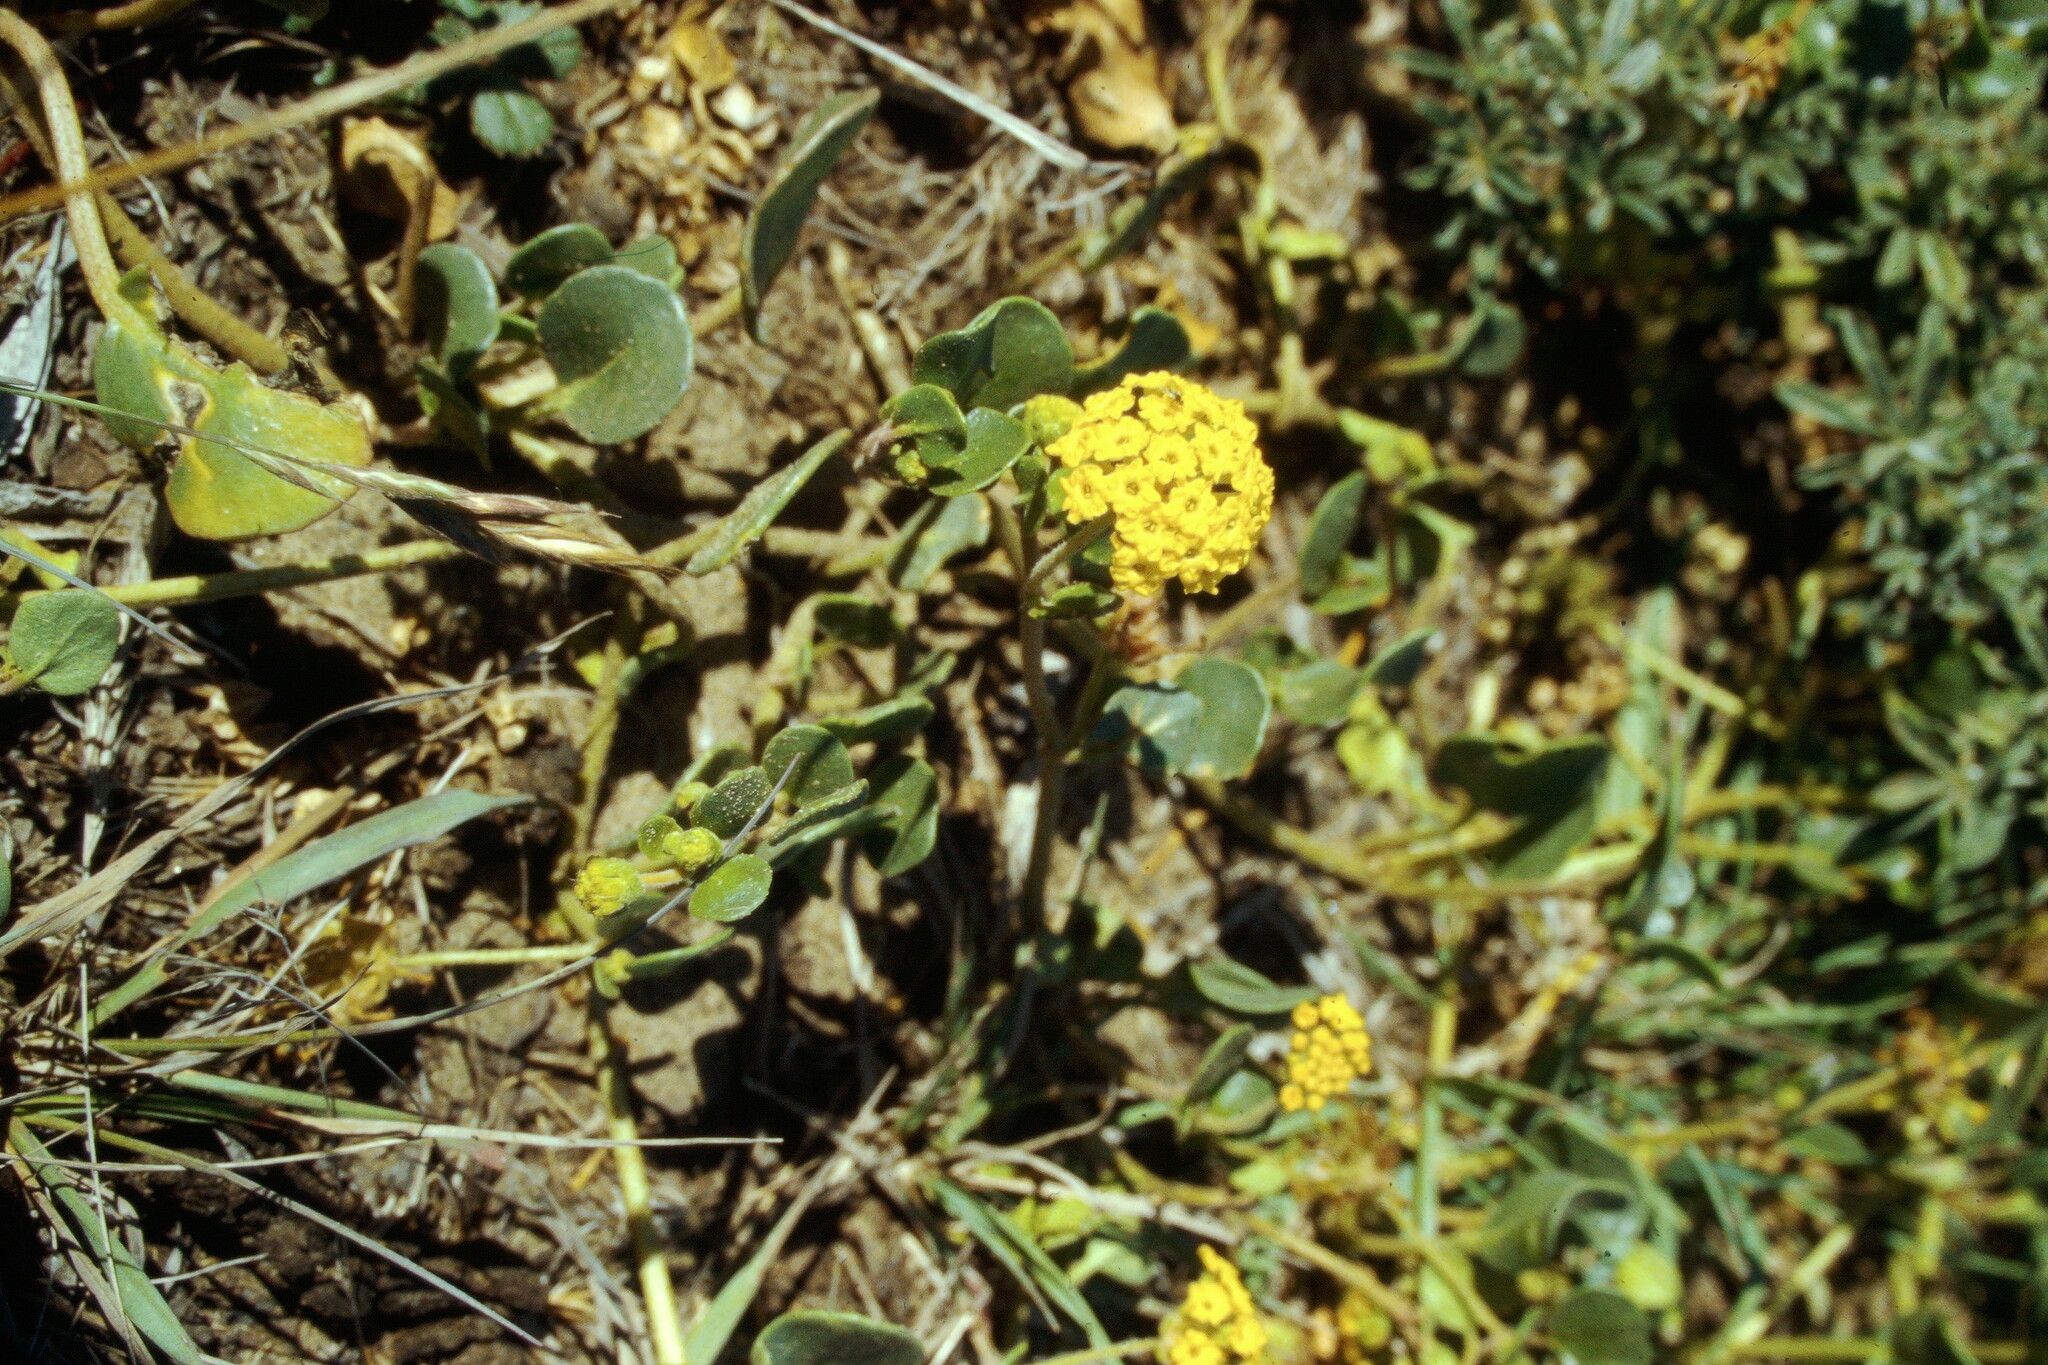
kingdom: Plantae
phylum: Tracheophyta
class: Magnoliopsida
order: Caryophyllales
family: Nyctaginaceae
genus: Abronia
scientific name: Abronia latifolia
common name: Yellow sand-verbena
